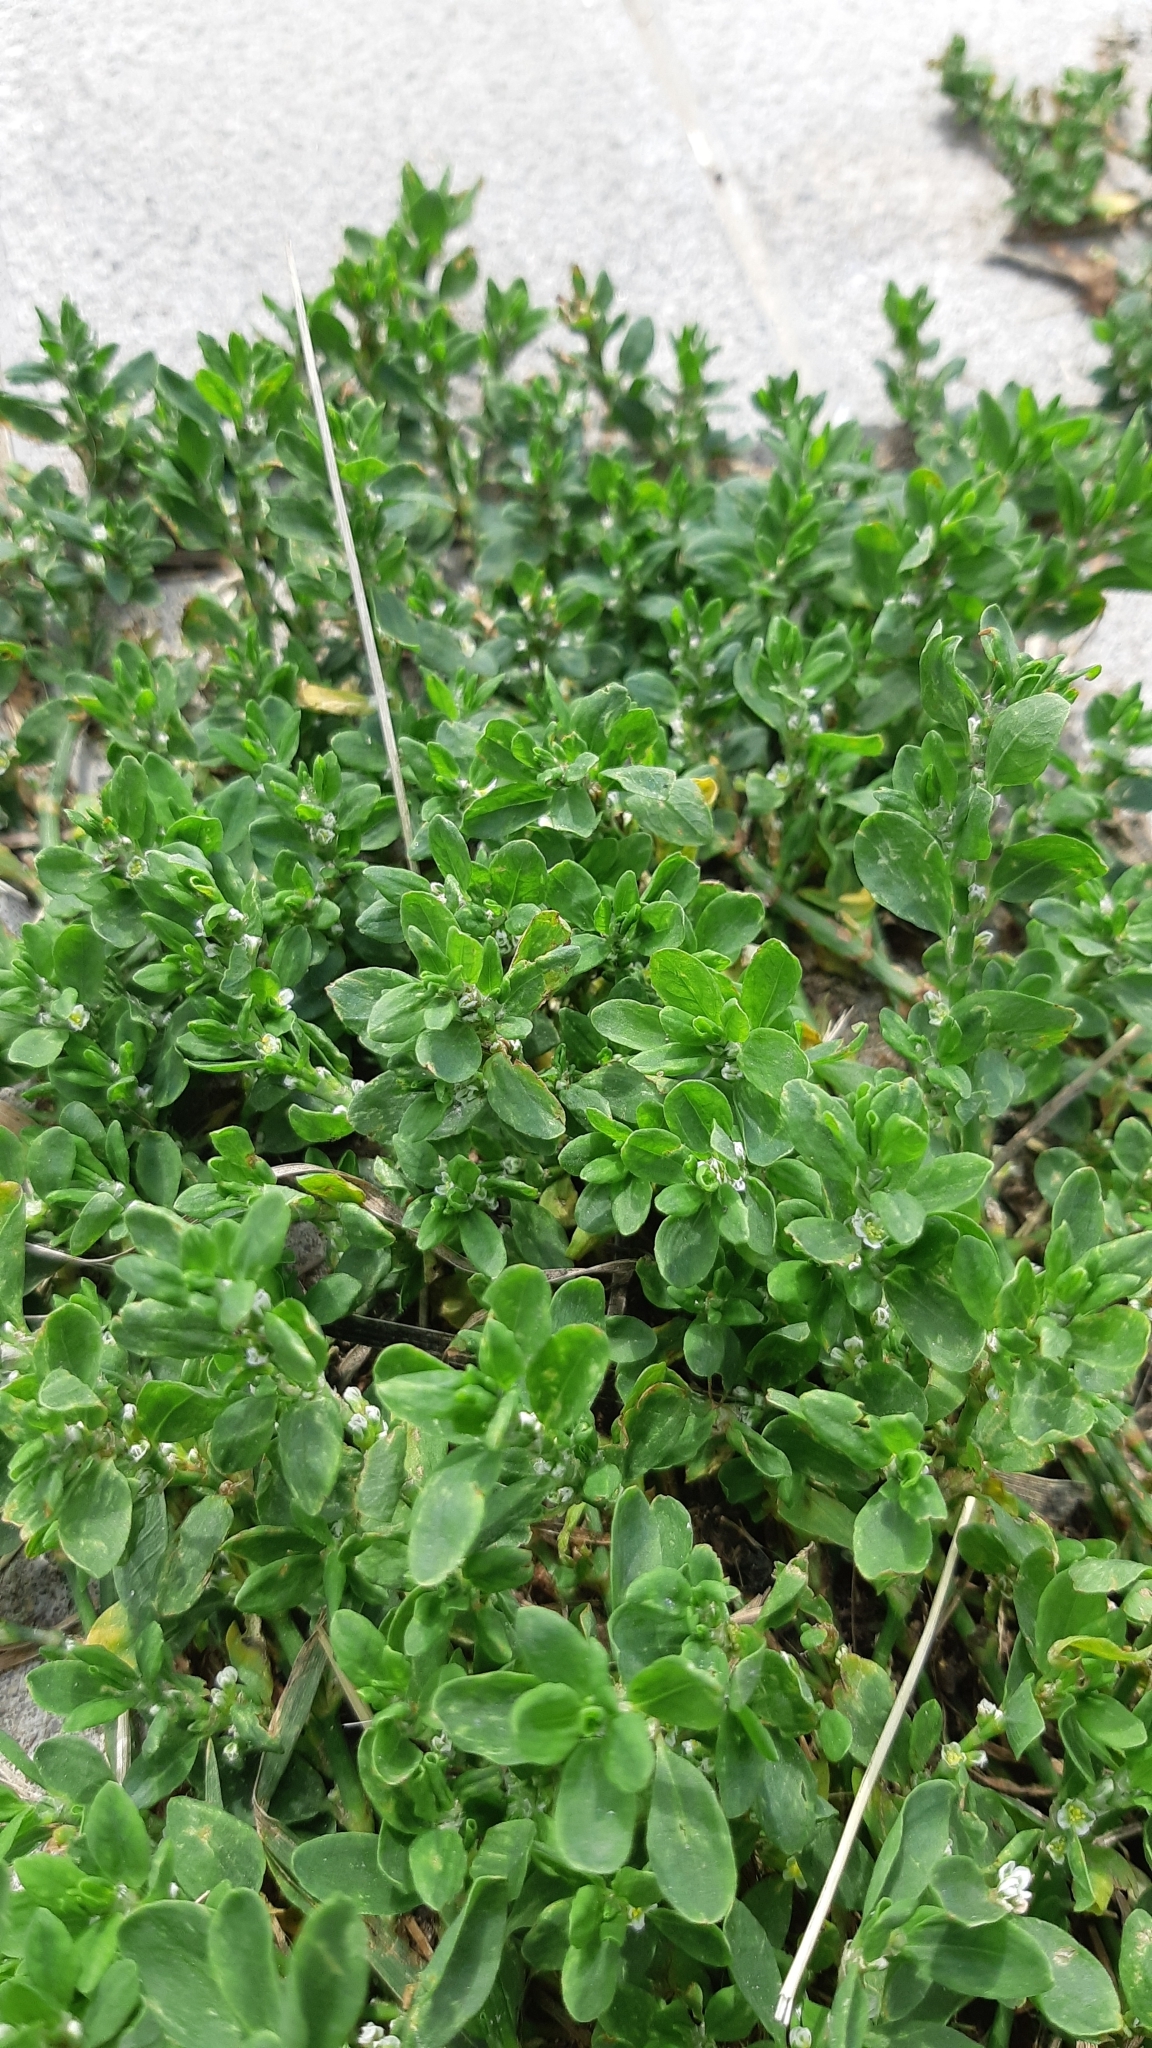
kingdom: Plantae
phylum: Tracheophyta
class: Magnoliopsida
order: Caryophyllales
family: Polygonaceae
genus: Polygonum
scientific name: Polygonum
